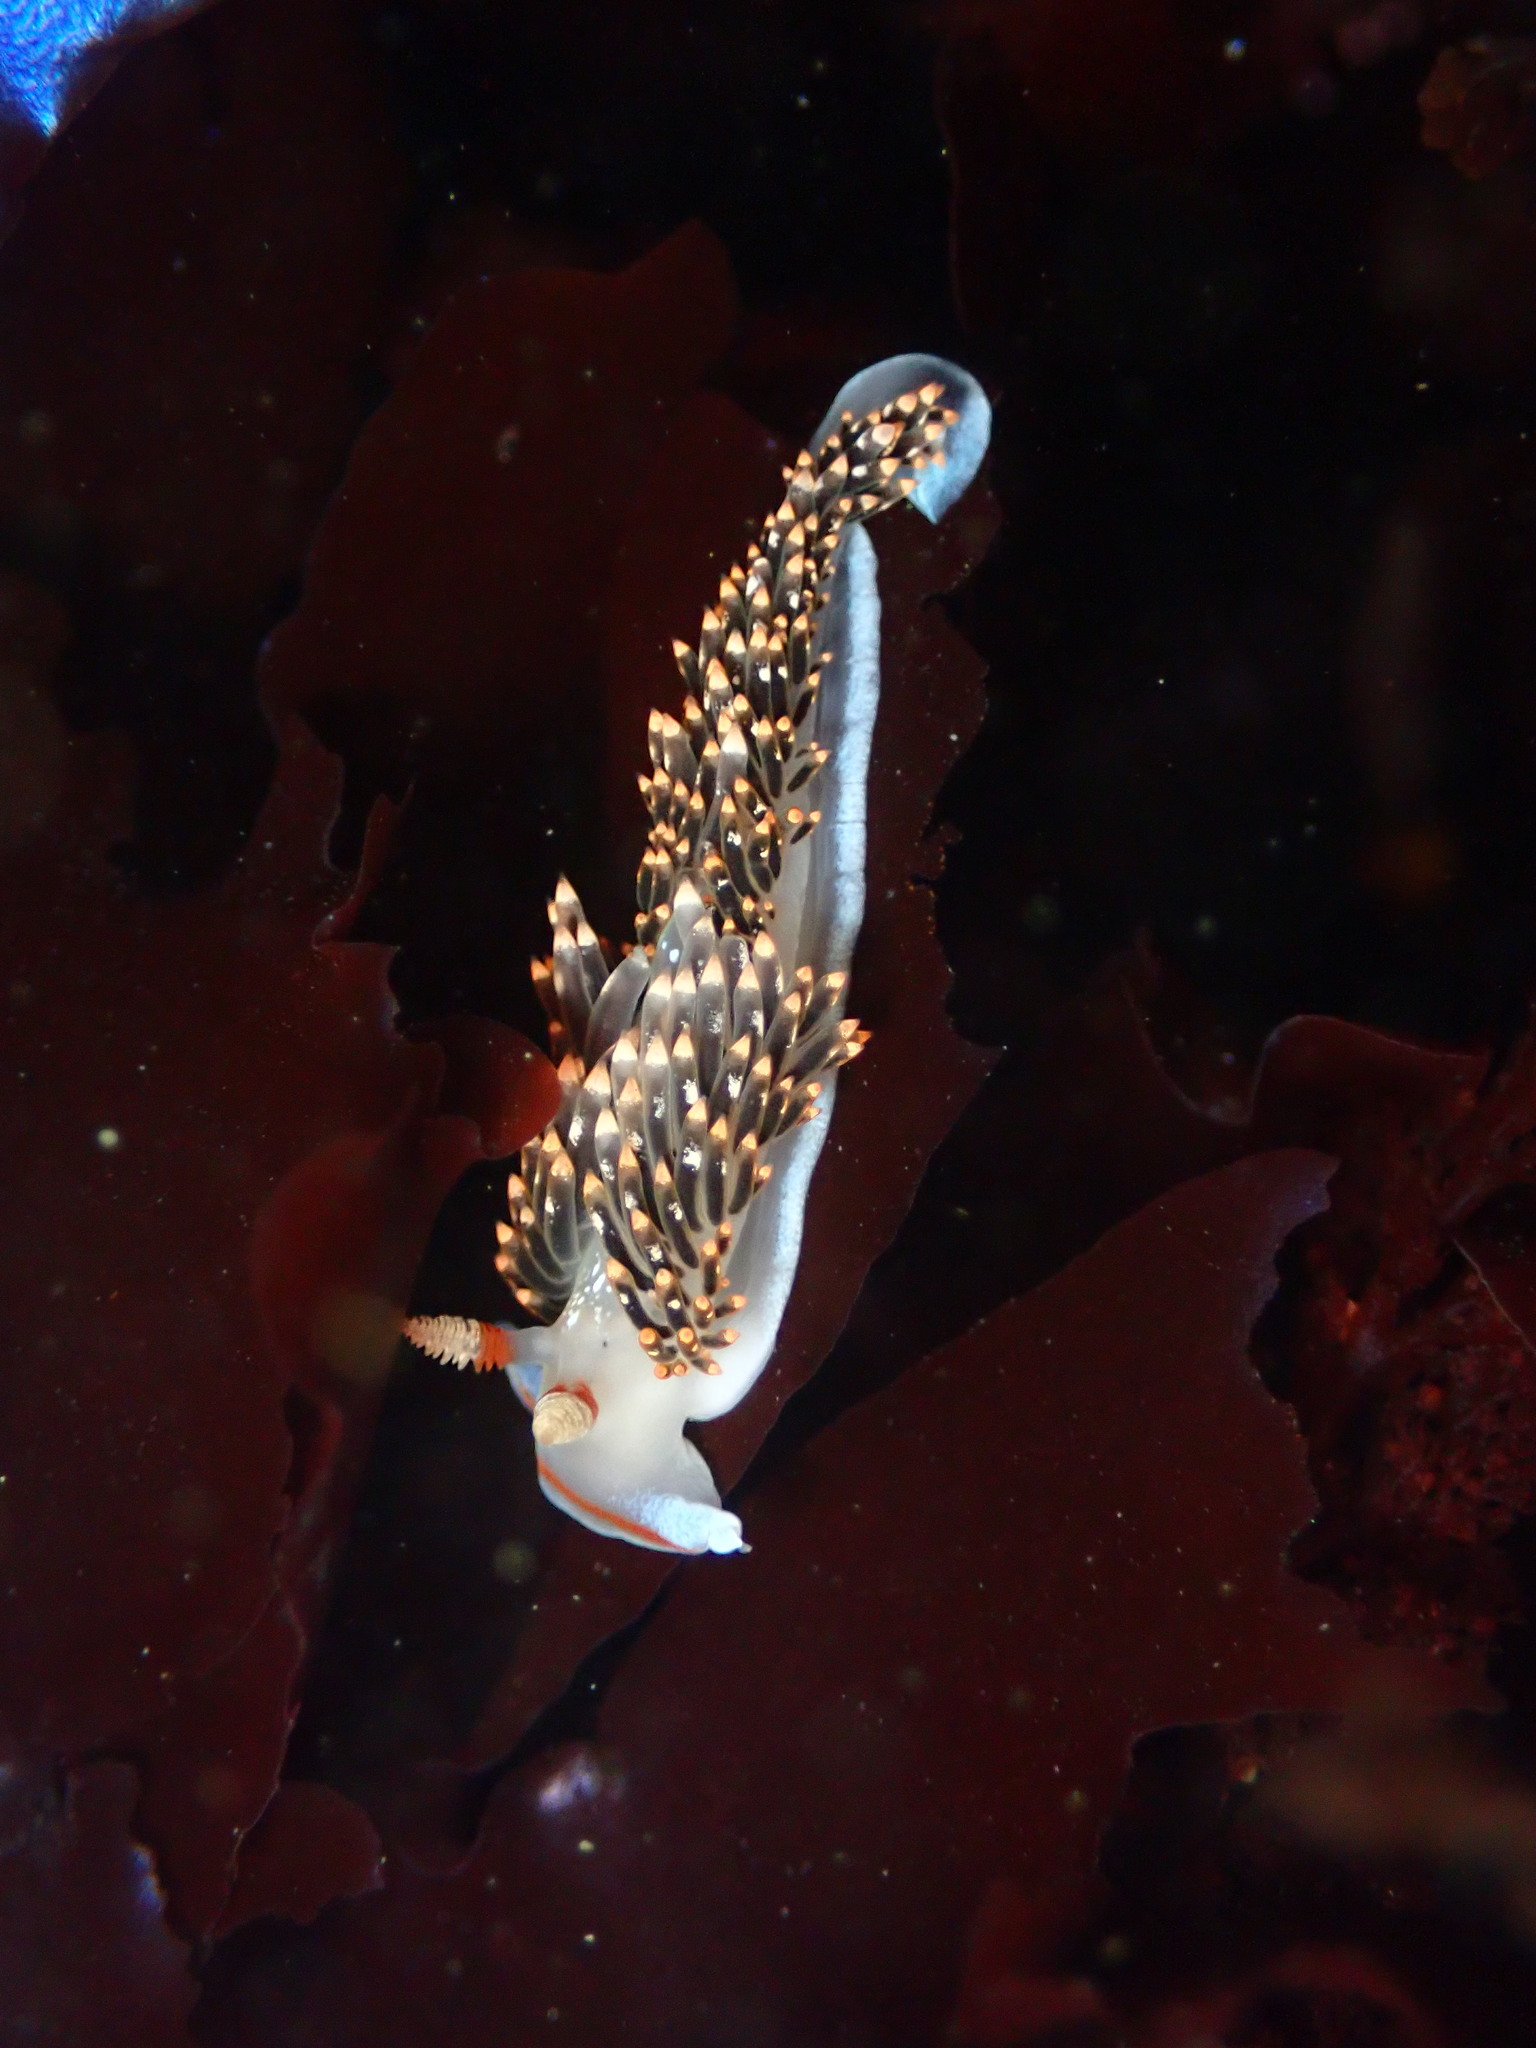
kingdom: Animalia
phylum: Mollusca
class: Gastropoda
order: Nudibranchia
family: Facelinidae
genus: Phidiana
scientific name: Phidiana hiltoni
